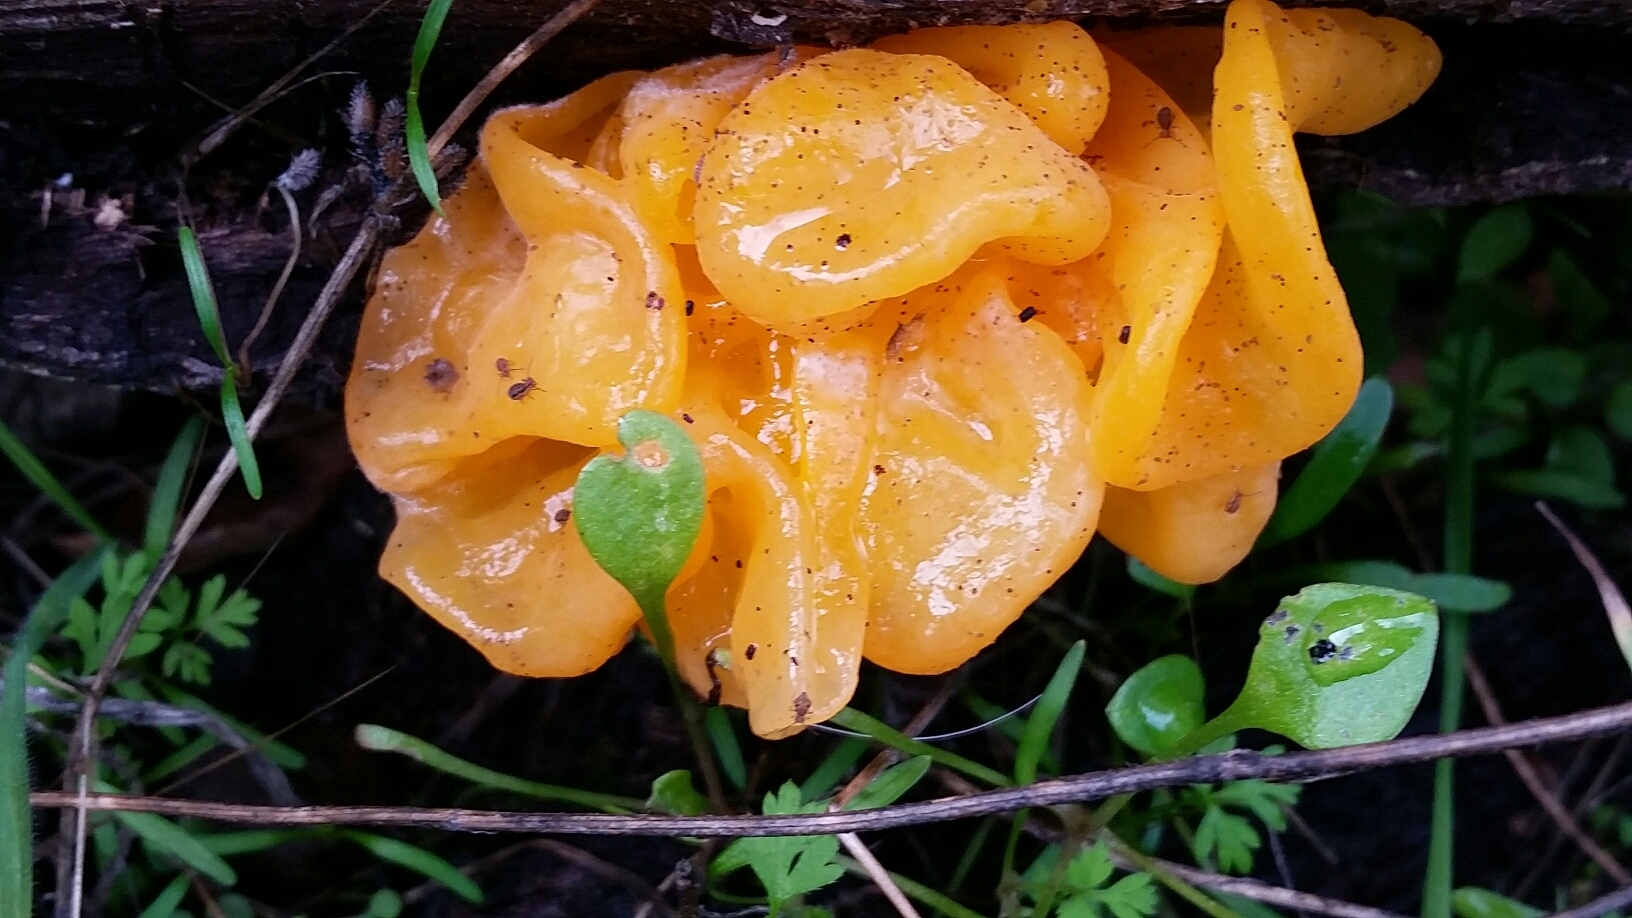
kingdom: Fungi
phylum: Basidiomycota
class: Tremellomycetes
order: Tremellales
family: Naemateliaceae
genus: Naematelia
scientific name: Naematelia aurantia
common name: Golden ear
